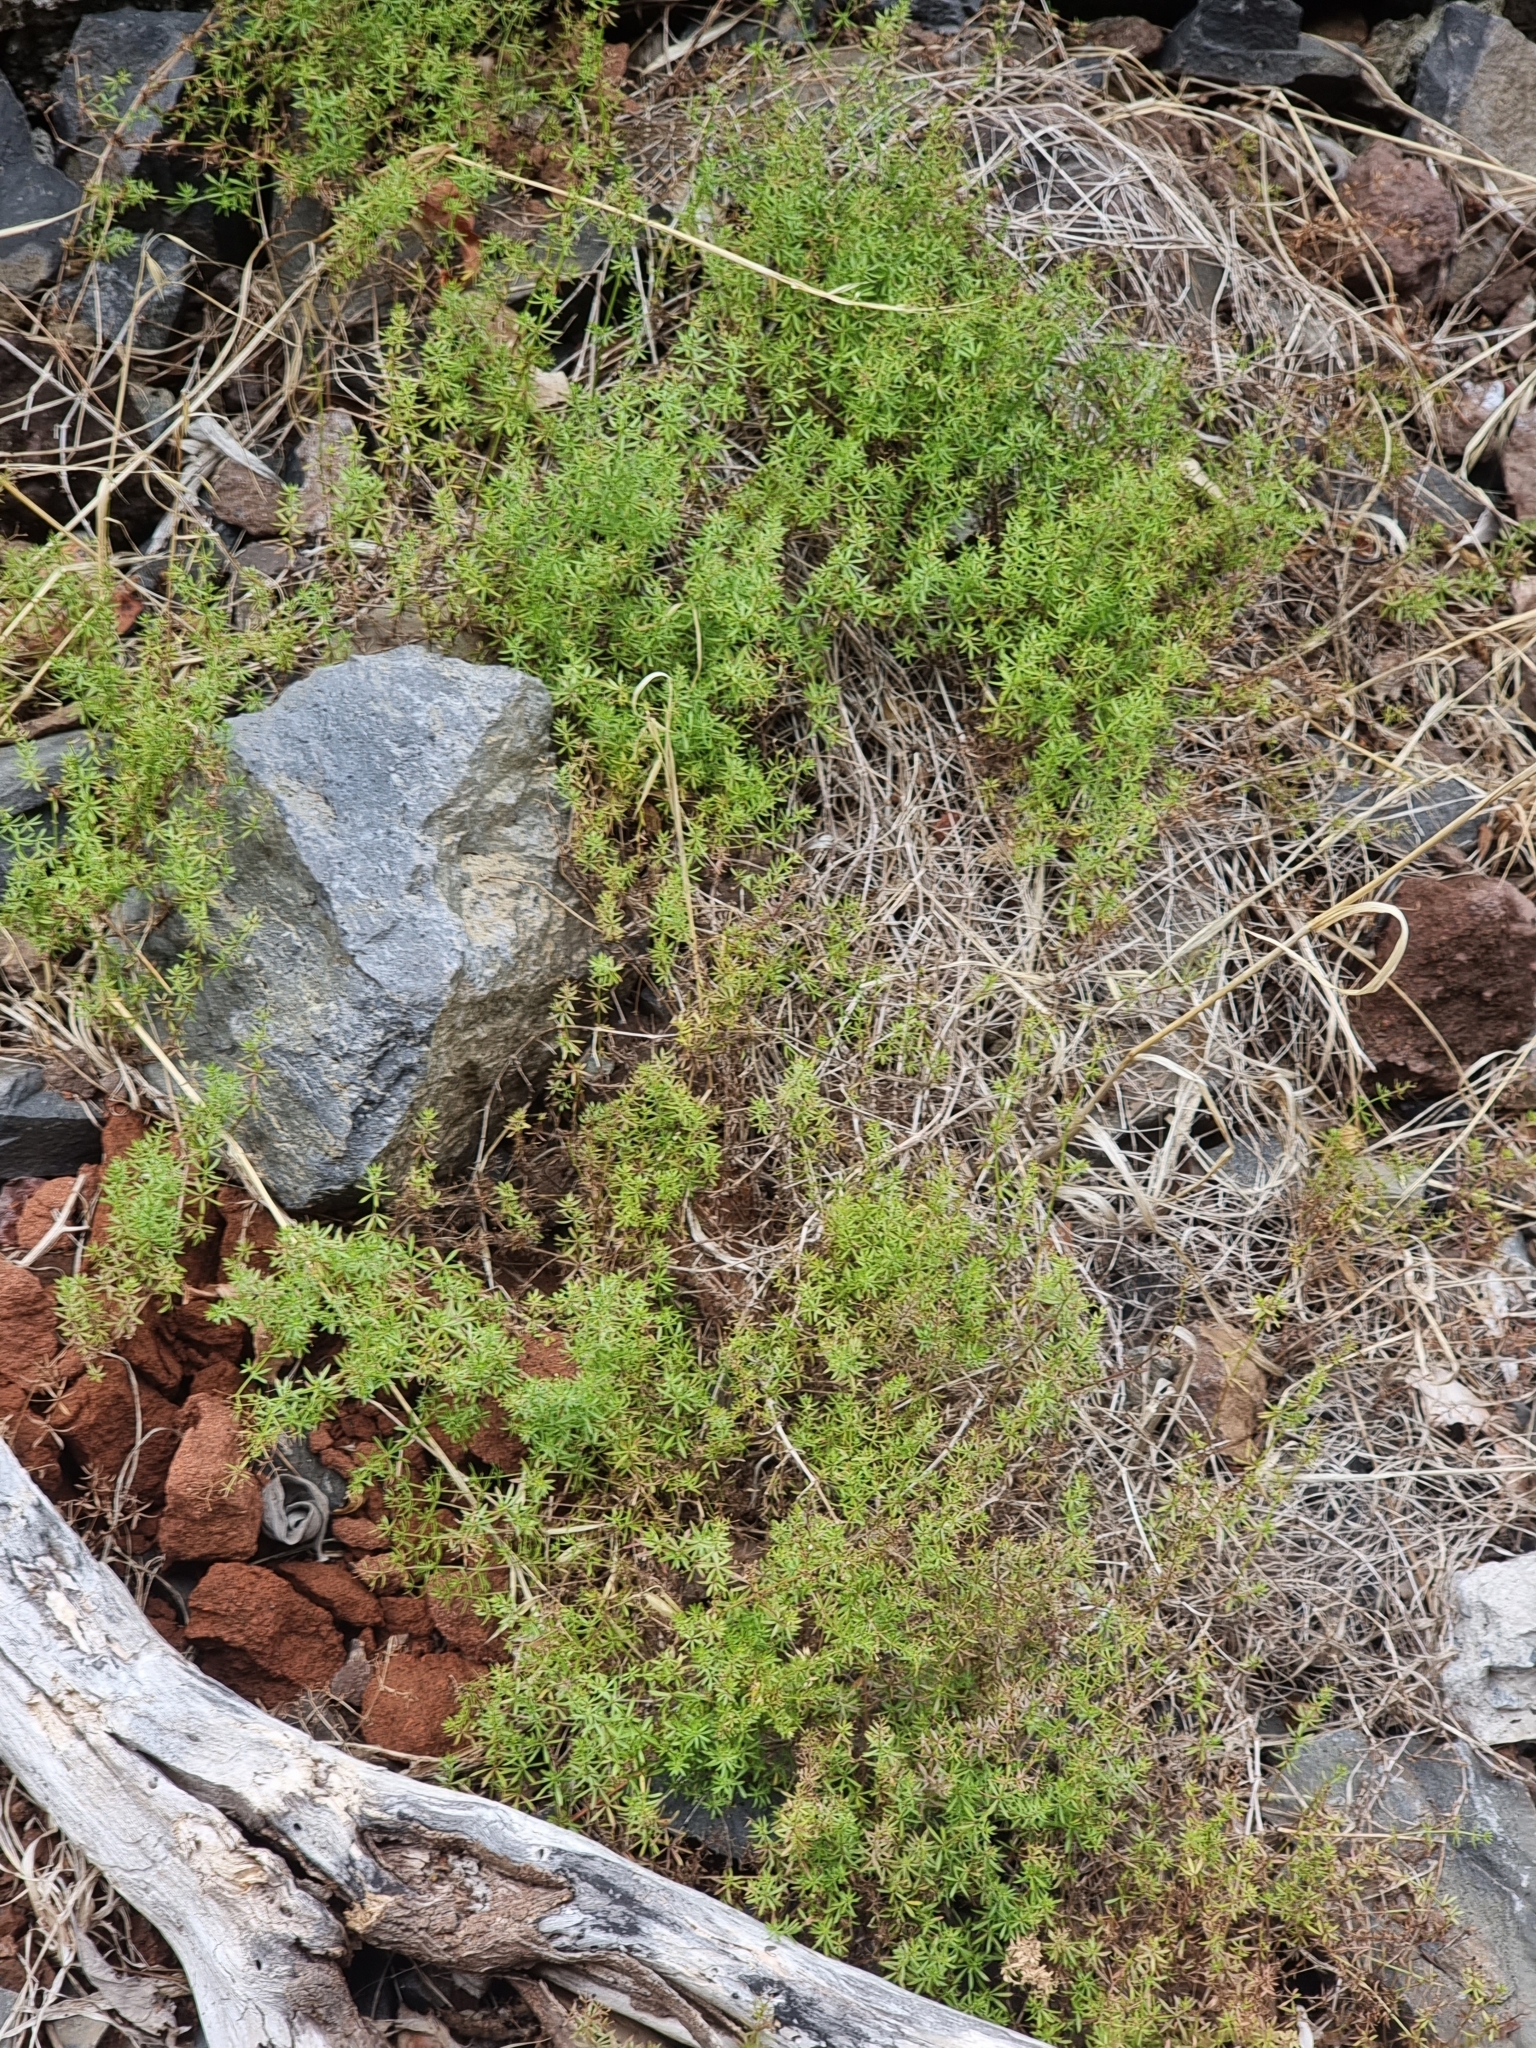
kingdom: Plantae
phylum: Tracheophyta
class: Magnoliopsida
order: Gentianales
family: Rubiaceae
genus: Galium
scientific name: Galium productum
